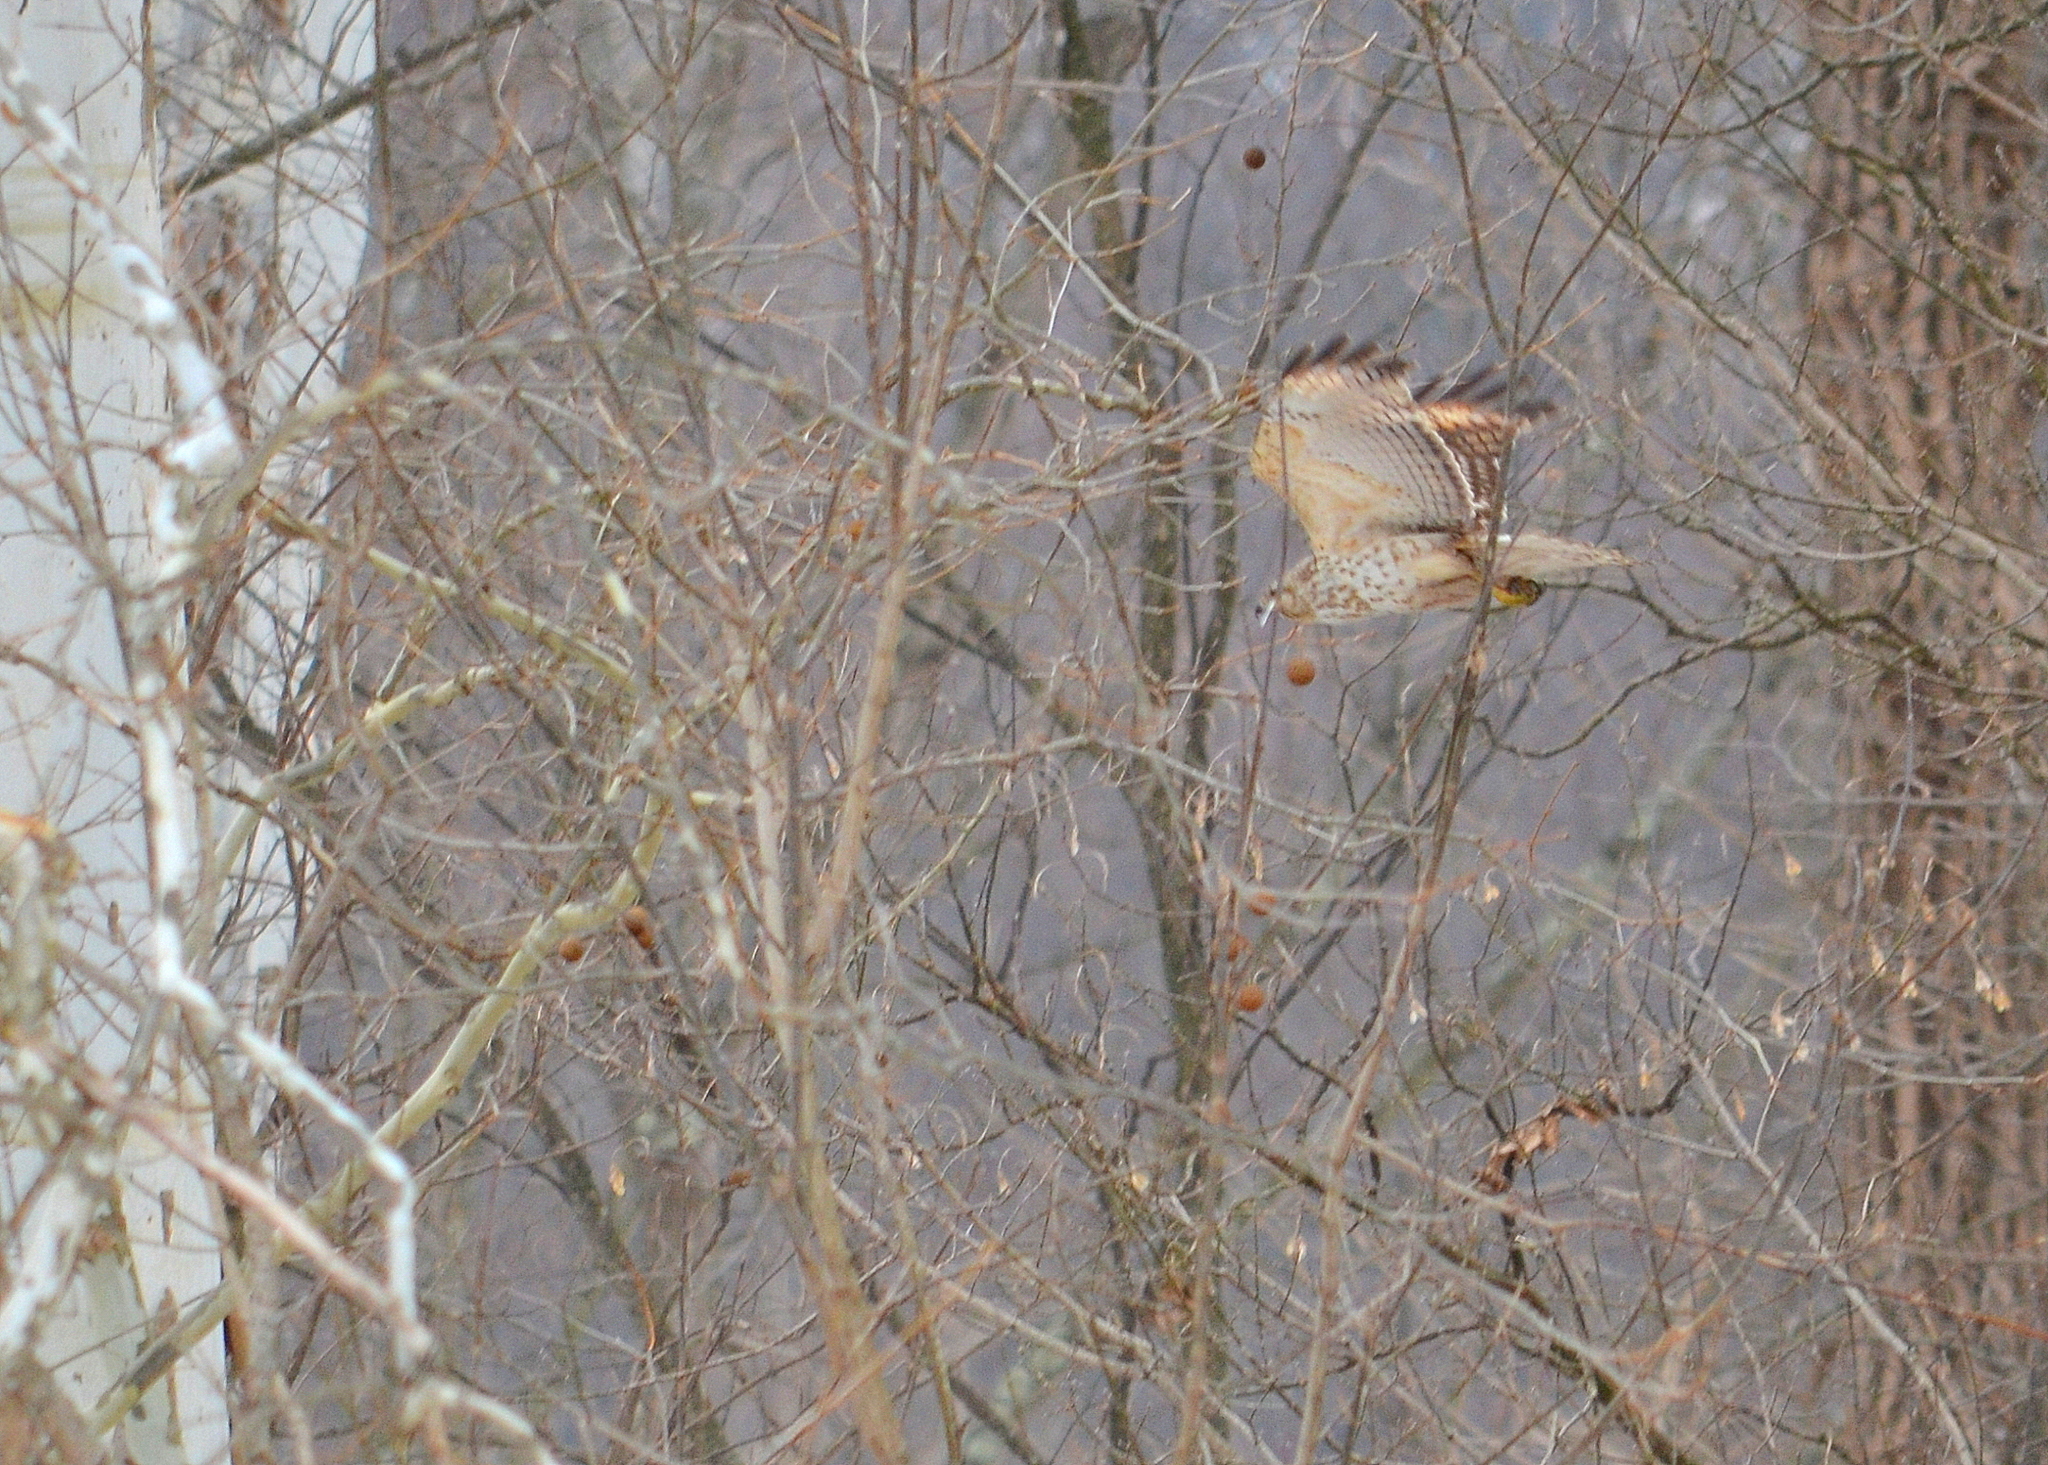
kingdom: Animalia
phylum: Chordata
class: Aves
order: Accipitriformes
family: Accipitridae
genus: Buteo
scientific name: Buteo lineatus
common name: Red-shouldered hawk
